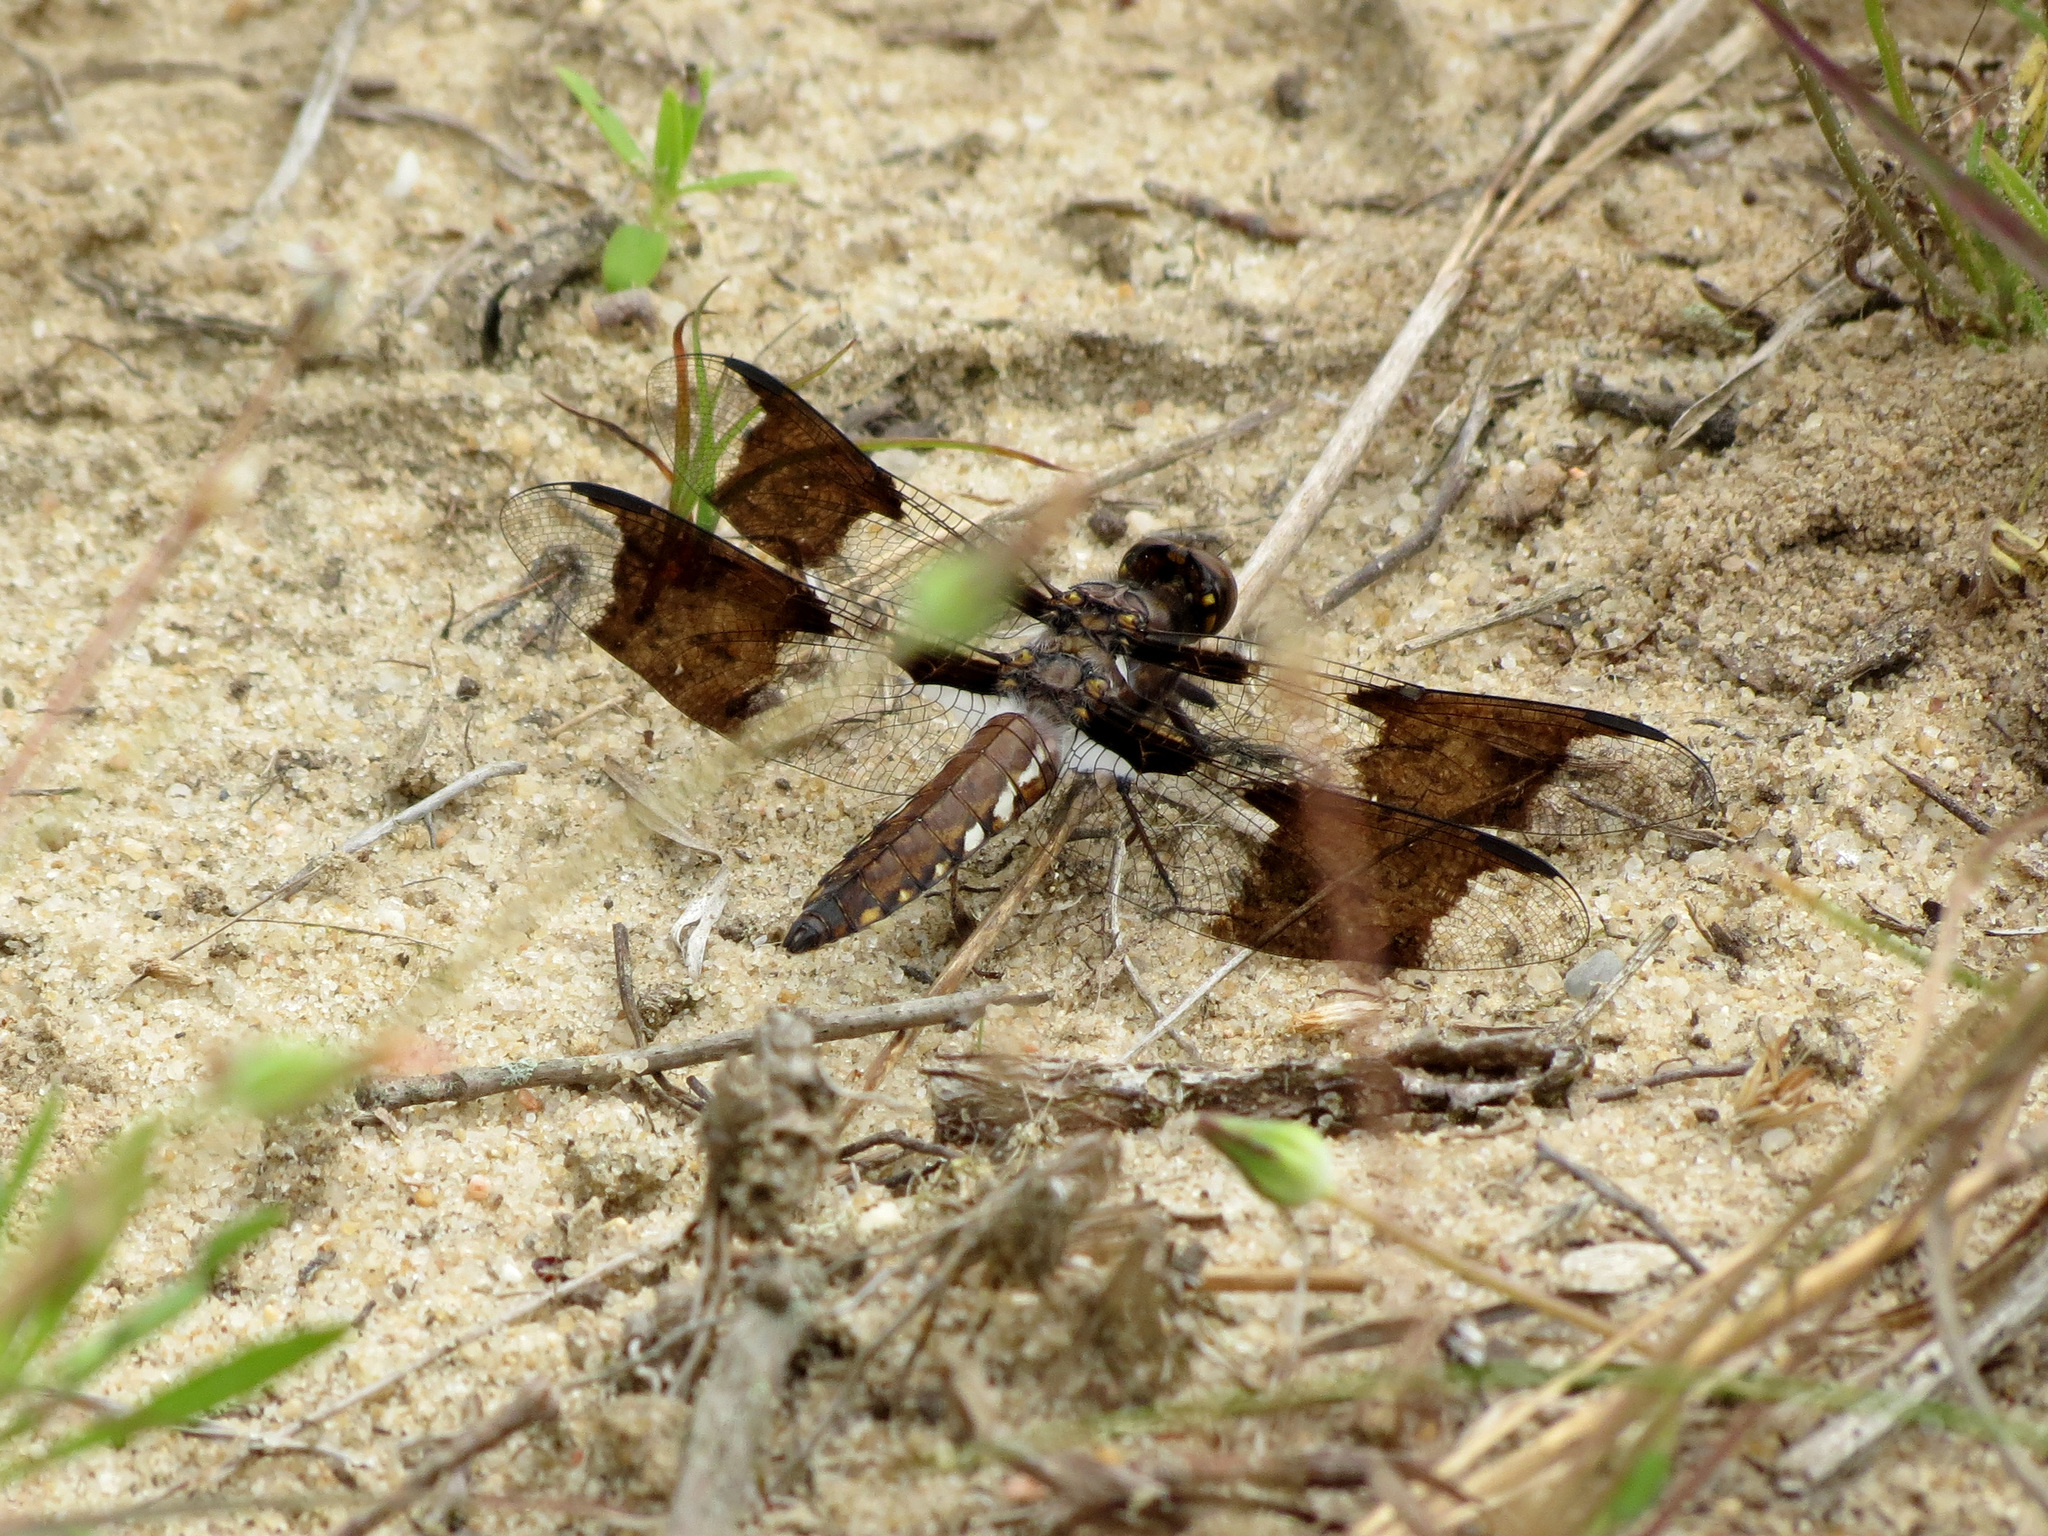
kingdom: Animalia
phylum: Arthropoda
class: Insecta
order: Odonata
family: Libellulidae
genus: Plathemis
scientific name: Plathemis lydia
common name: Common whitetail
